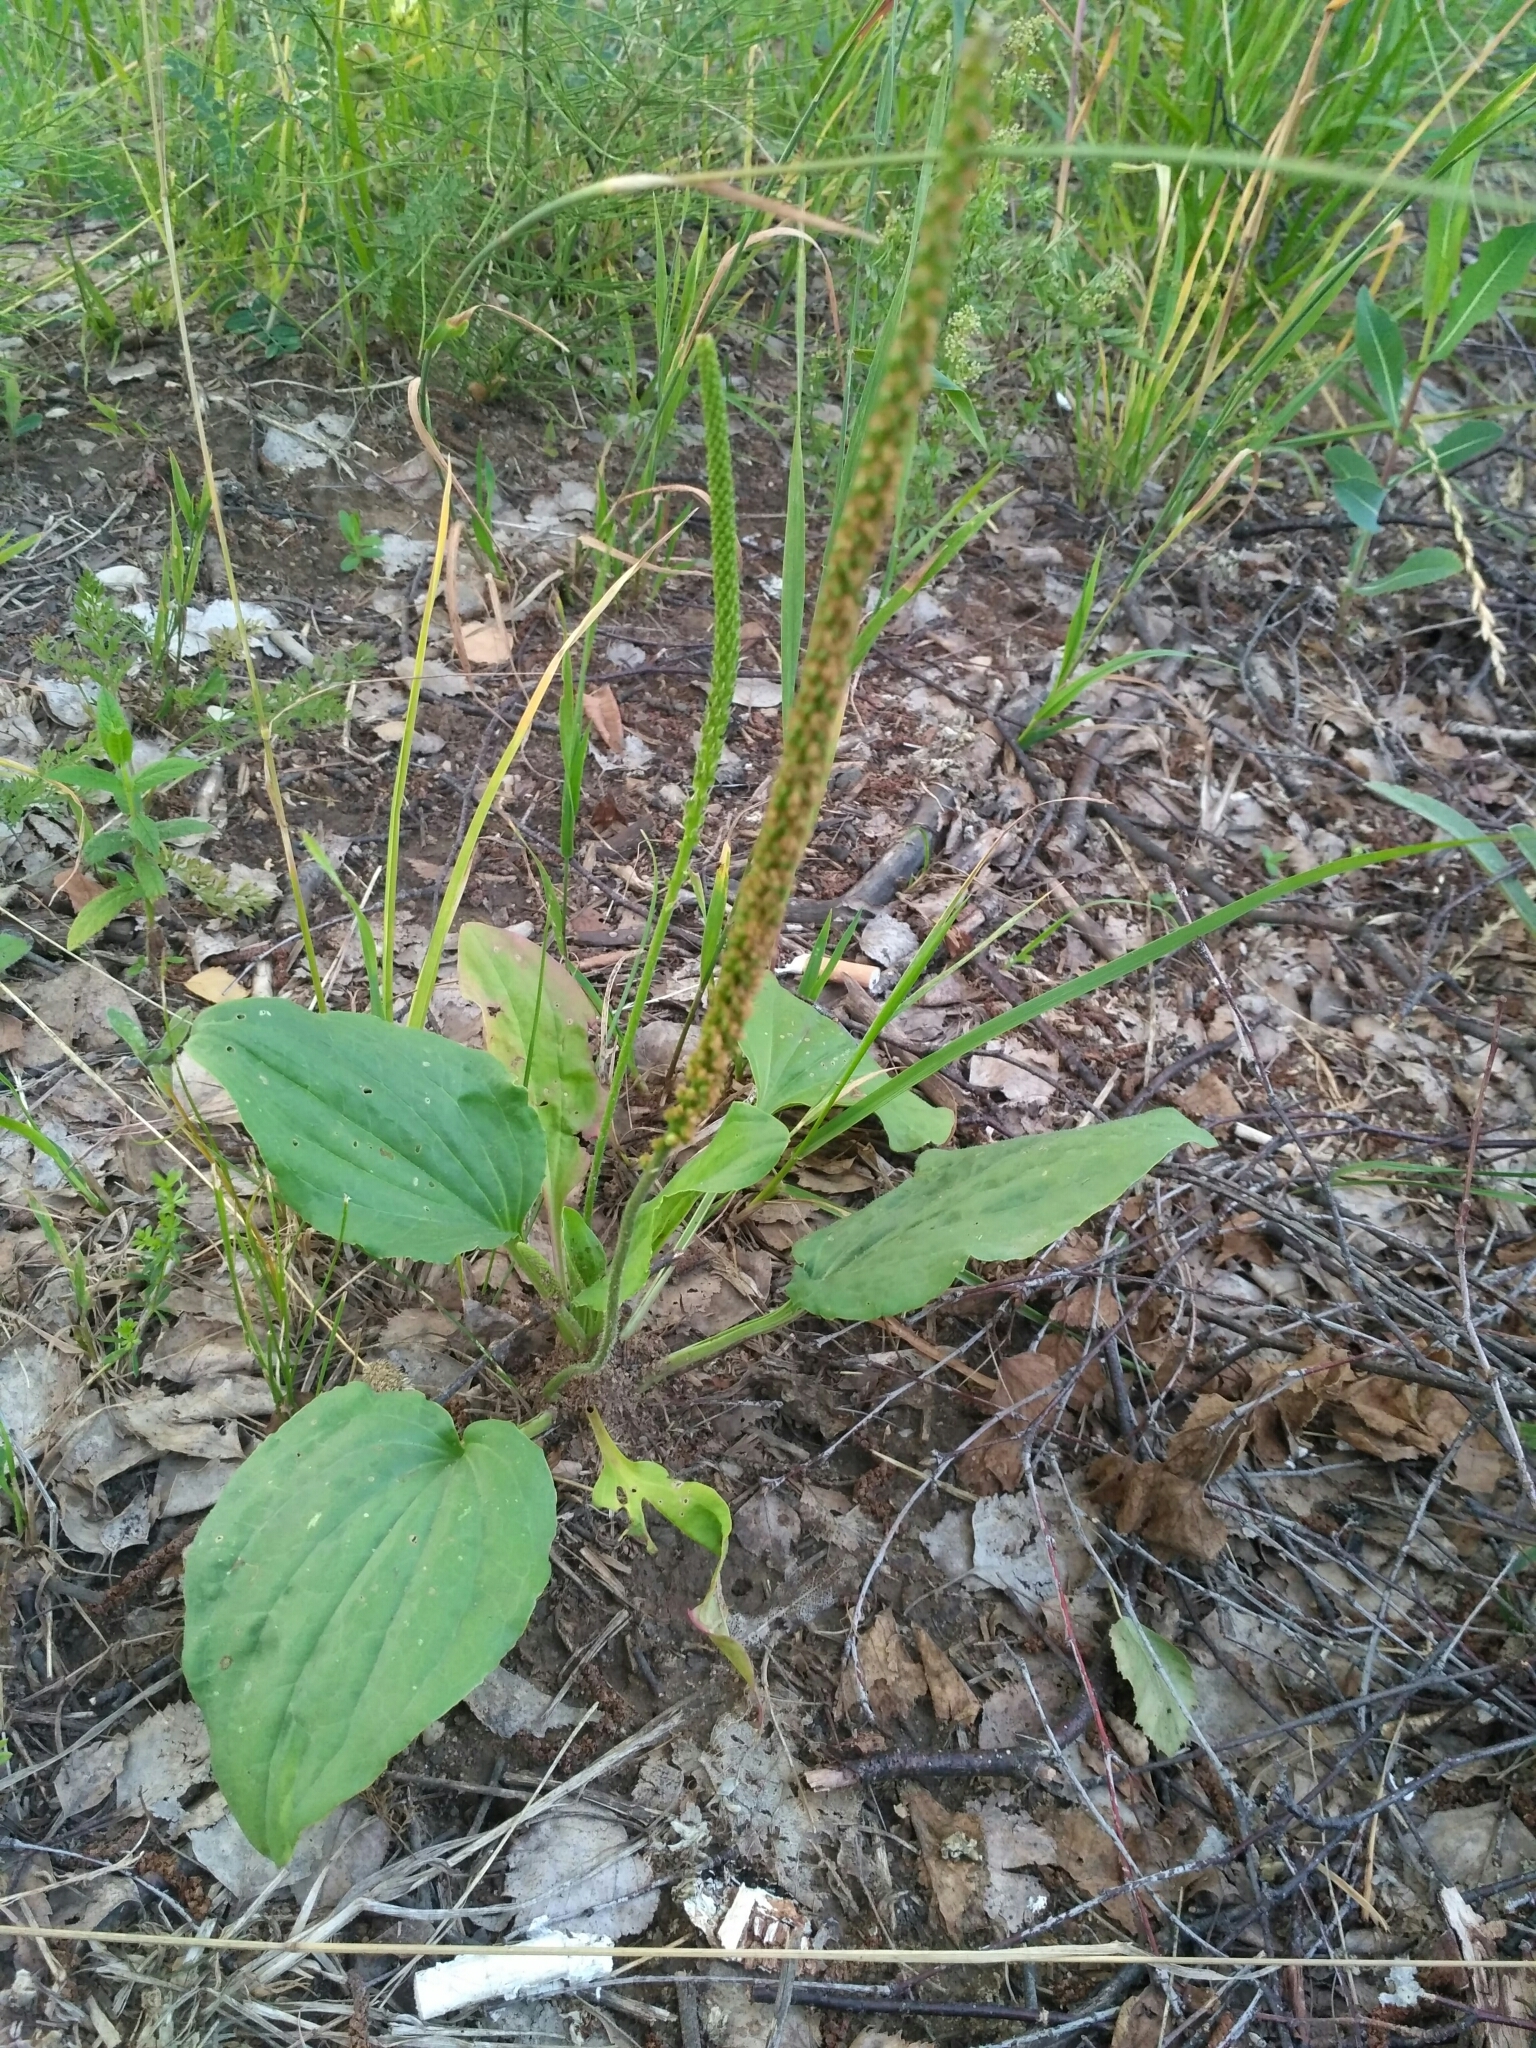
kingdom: Plantae
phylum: Tracheophyta
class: Magnoliopsida
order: Lamiales
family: Plantaginaceae
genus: Plantago
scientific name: Plantago major
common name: Common plantain
